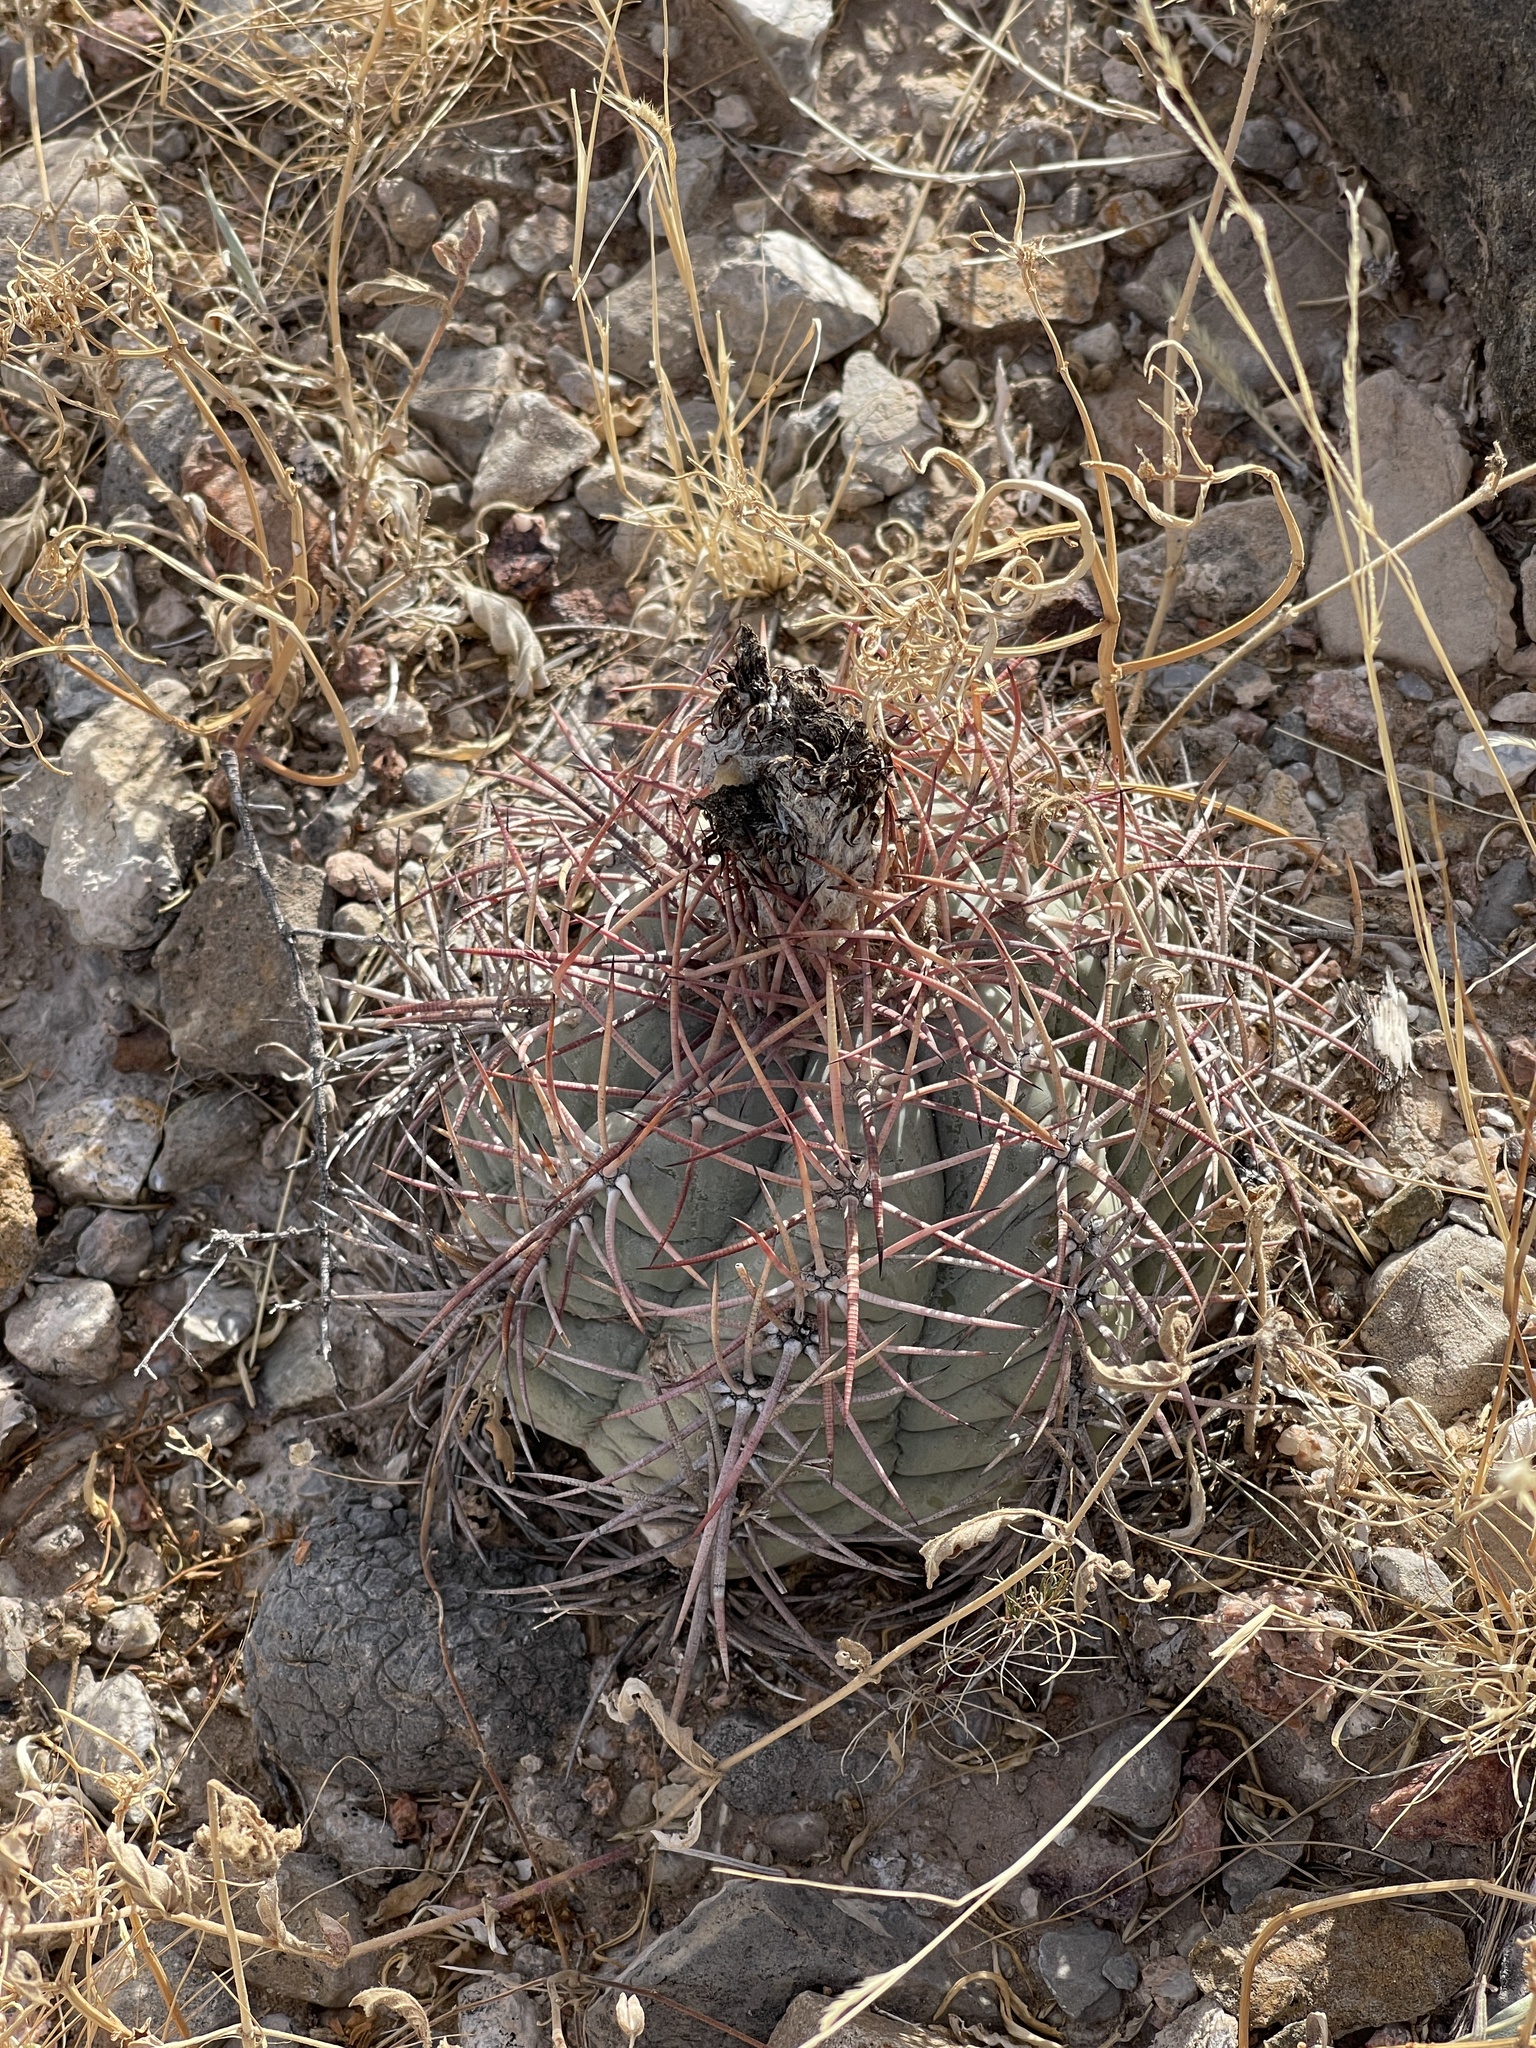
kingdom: Plantae
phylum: Tracheophyta
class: Magnoliopsida
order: Caryophyllales
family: Cactaceae
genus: Echinocactus
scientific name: Echinocactus horizonthalonius
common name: Devilshead
